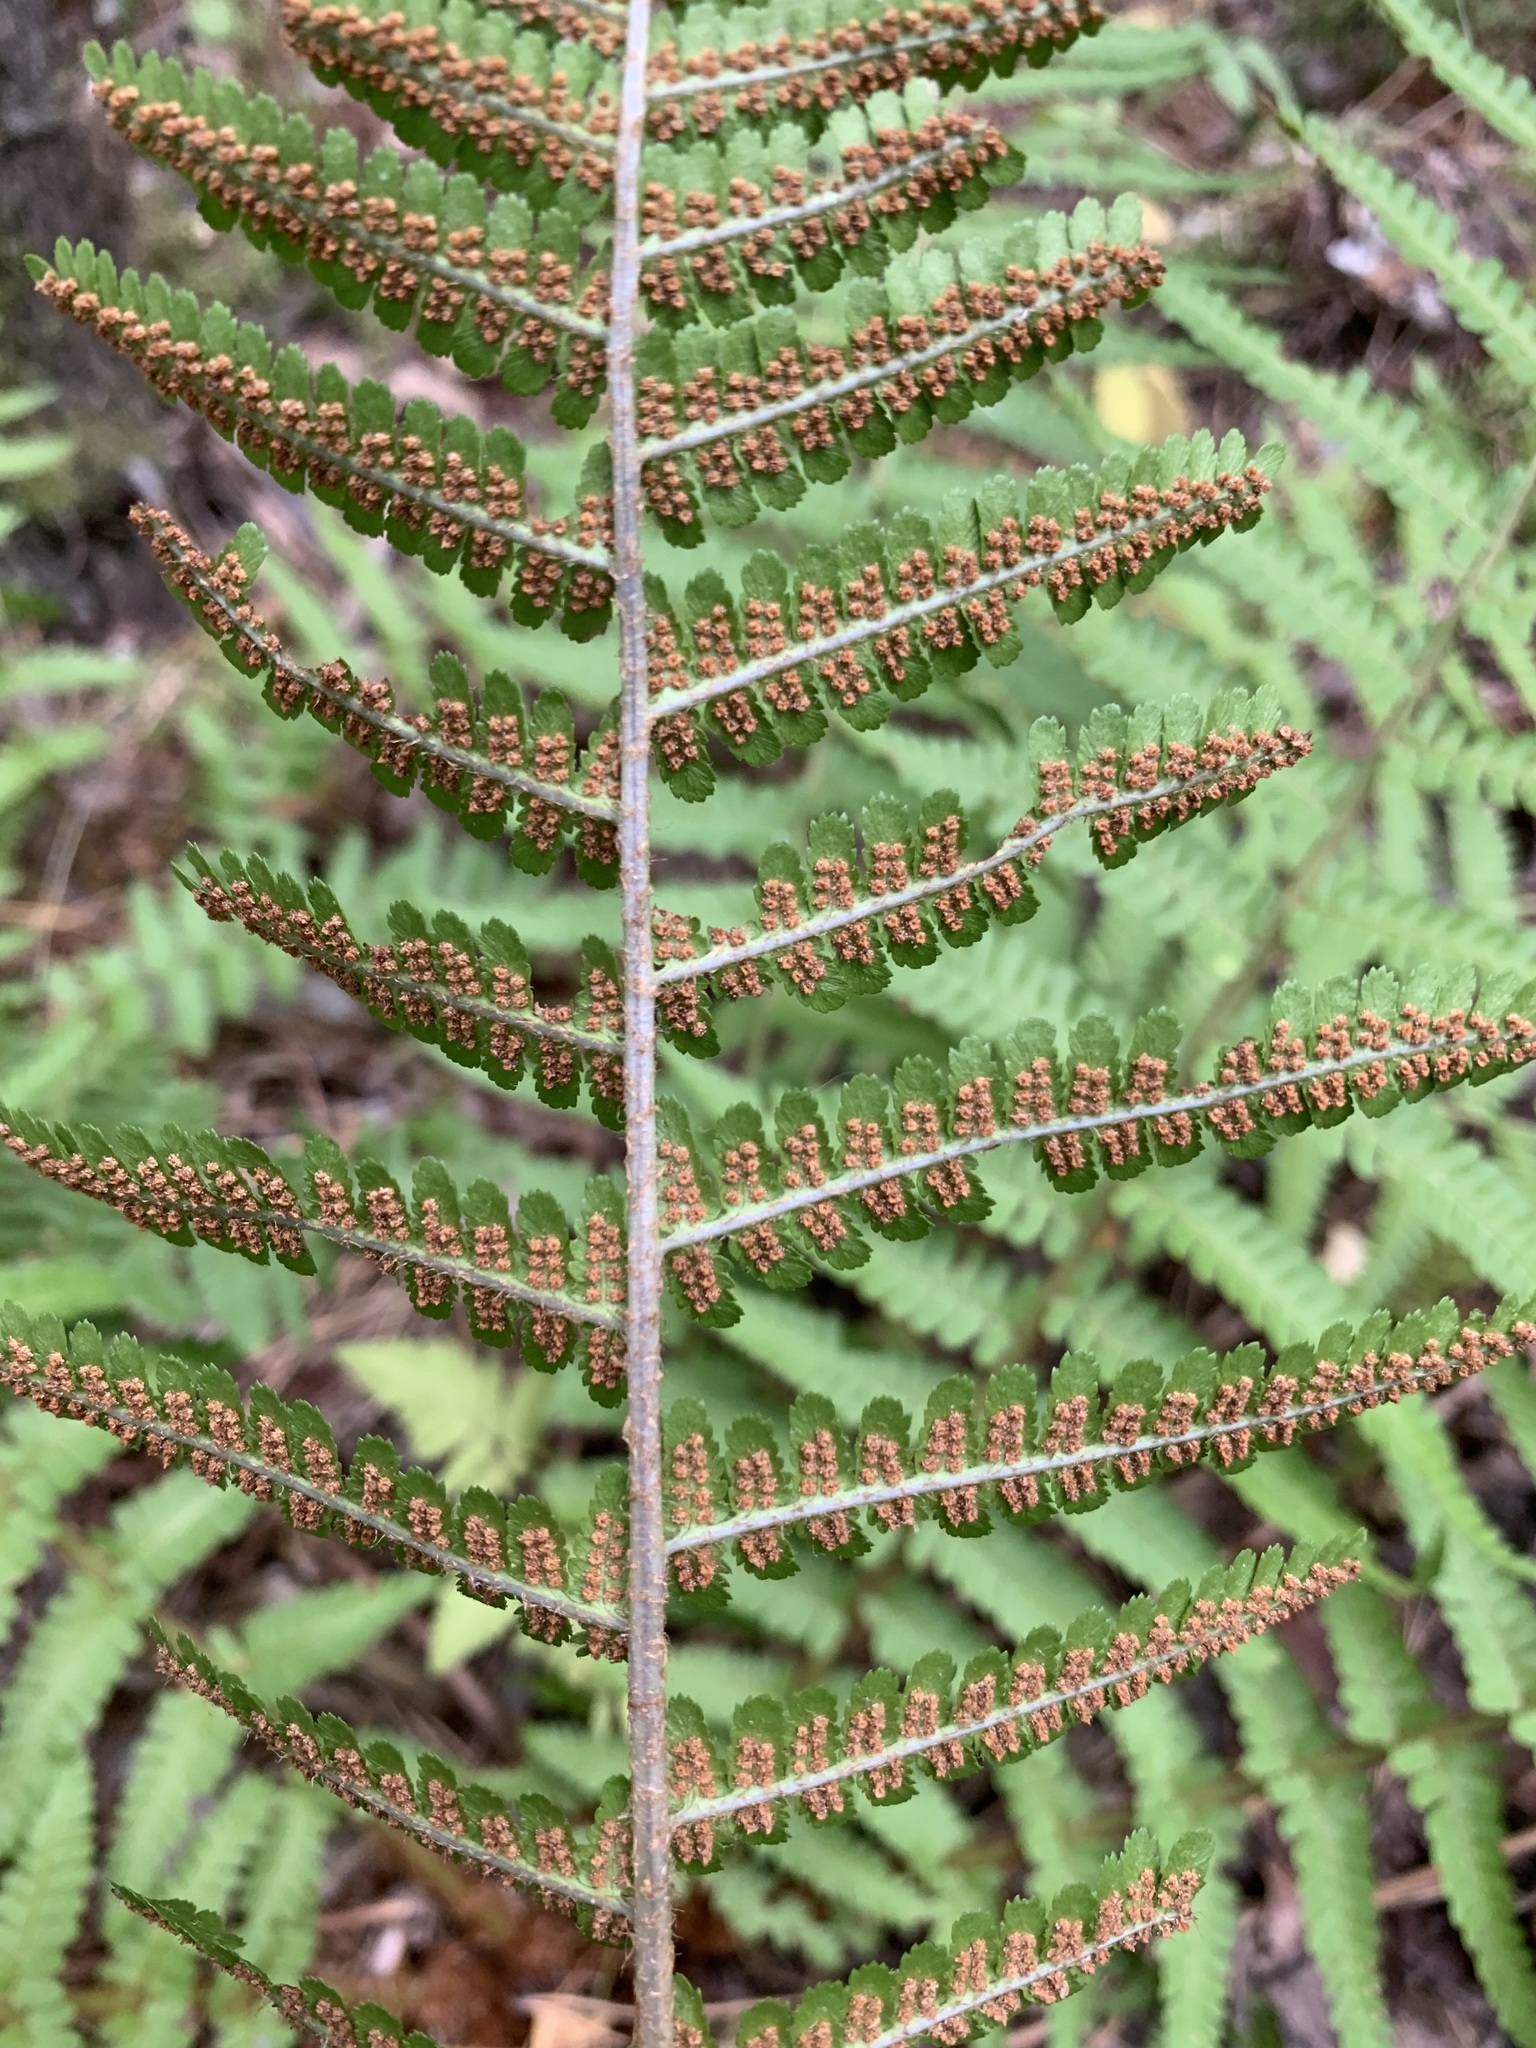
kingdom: Plantae
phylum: Tracheophyta
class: Polypodiopsida
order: Polypodiales
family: Dryopteridaceae
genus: Dryopteris
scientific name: Dryopteris filix-mas
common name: Male fern
